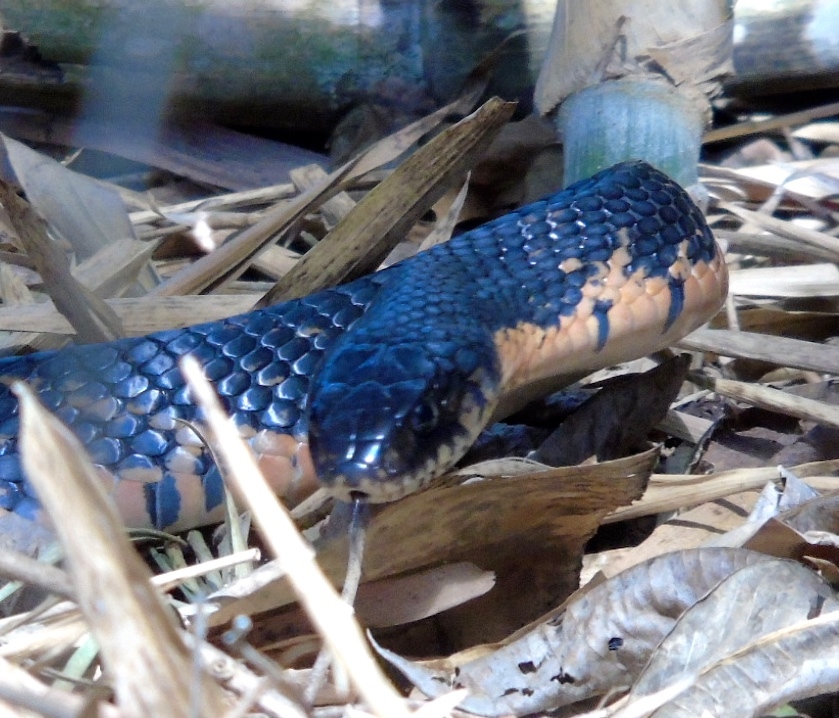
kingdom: Animalia
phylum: Chordata
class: Squamata
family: Colubridae
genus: Drymarchon
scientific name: Drymarchon melanurus
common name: Central american indigo snake
